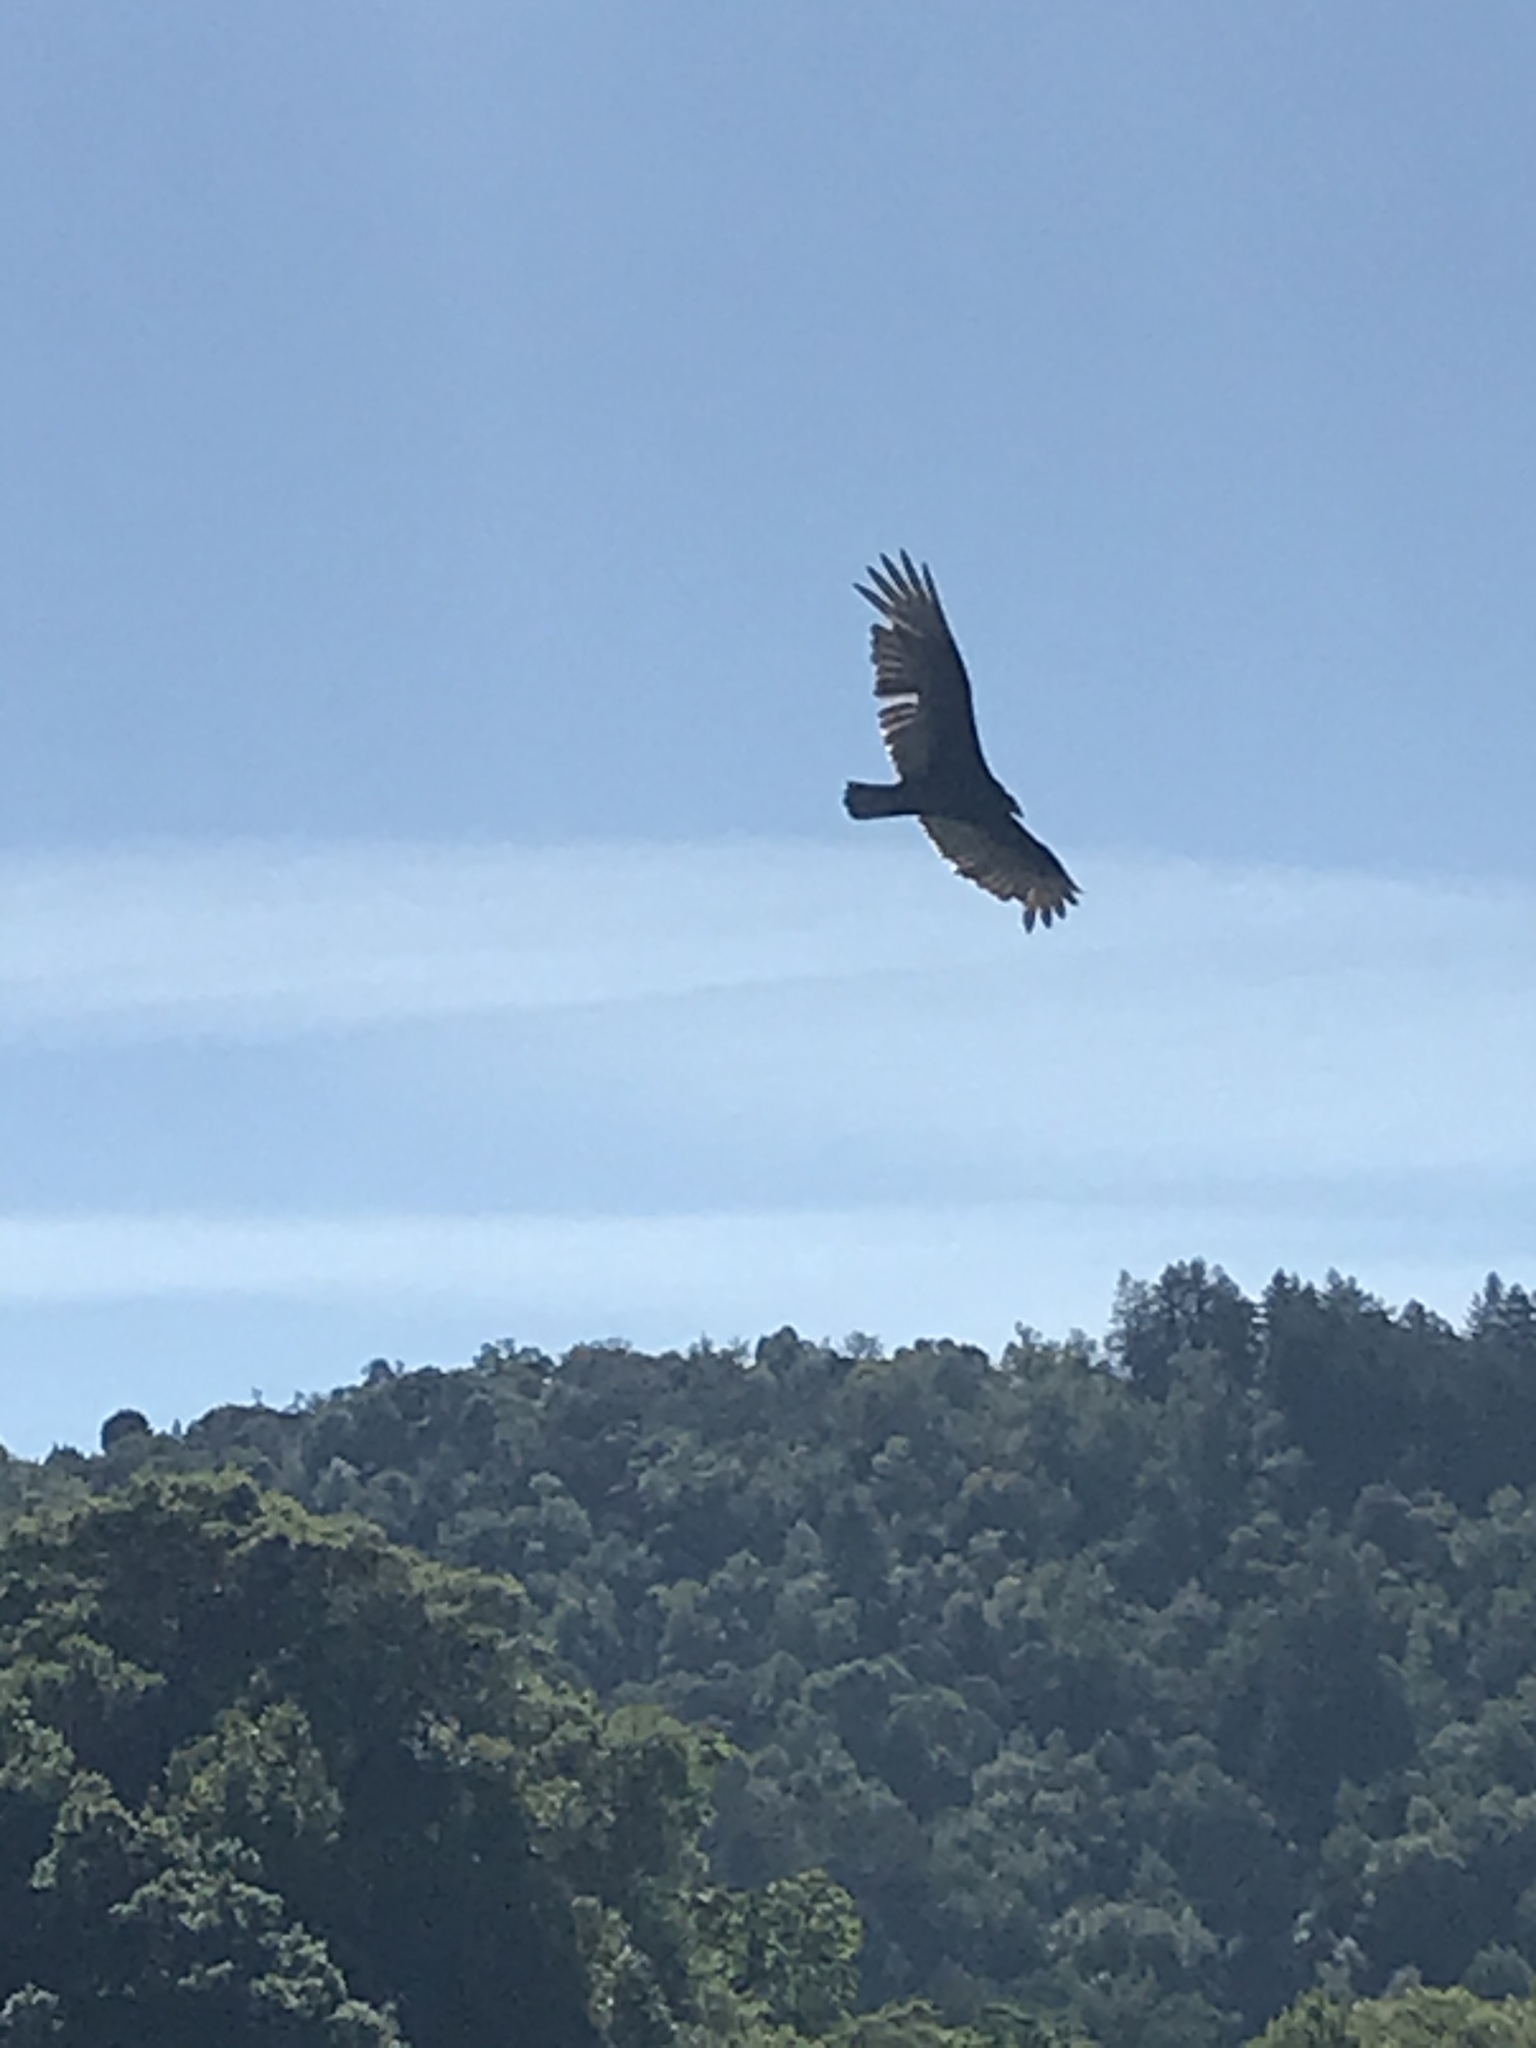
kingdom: Animalia
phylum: Chordata
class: Aves
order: Accipitriformes
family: Cathartidae
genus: Cathartes
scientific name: Cathartes aura
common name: Turkey vulture
